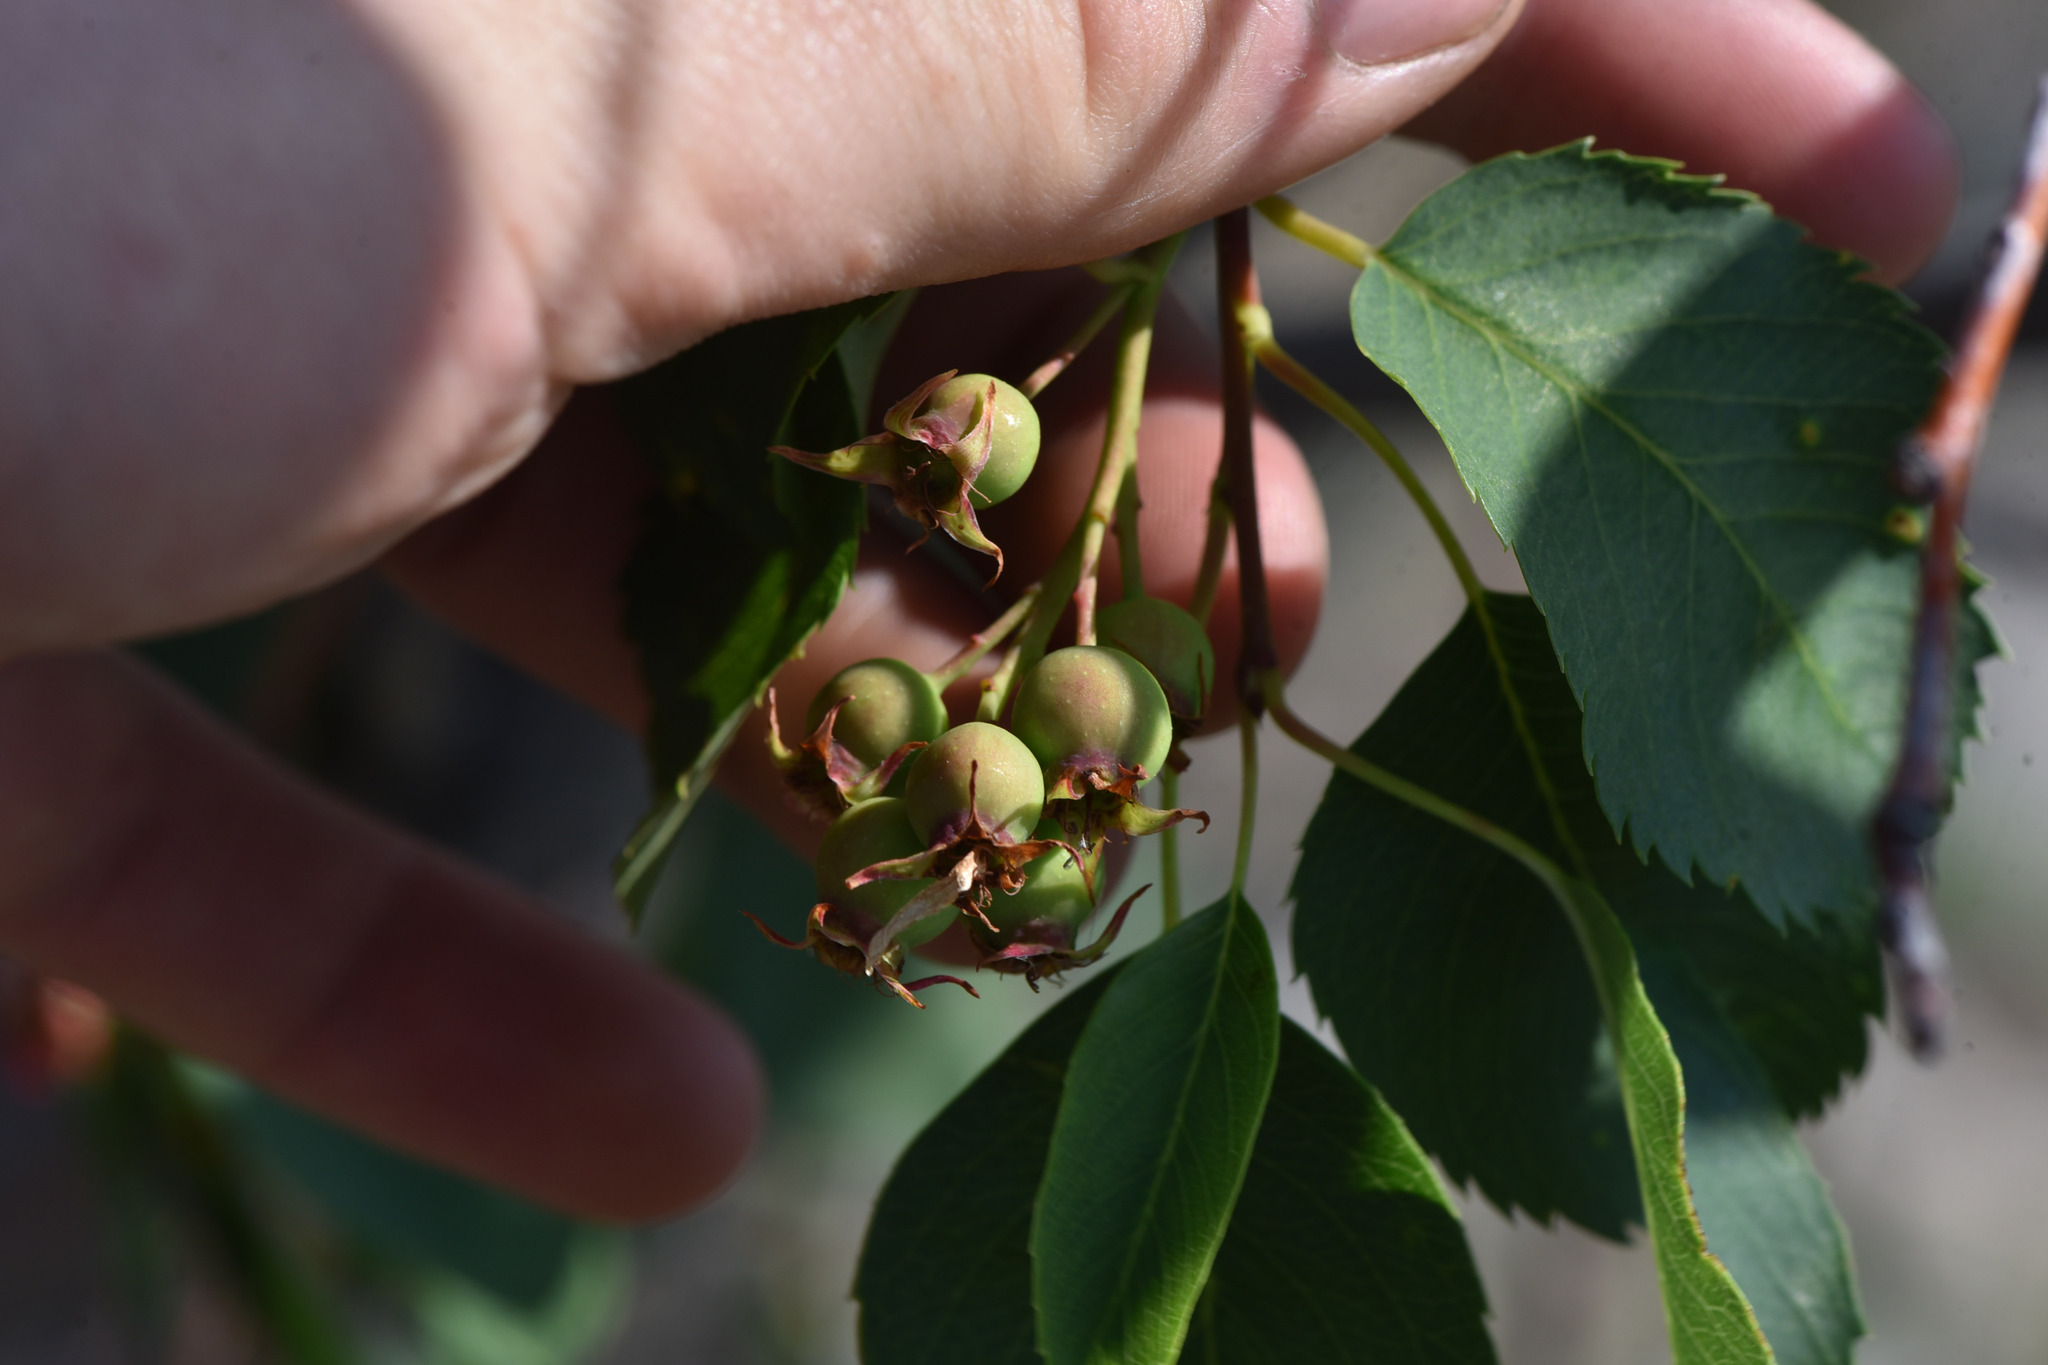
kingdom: Plantae
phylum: Tracheophyta
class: Magnoliopsida
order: Rosales
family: Rosaceae
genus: Amelanchier
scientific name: Amelanchier alnifolia
